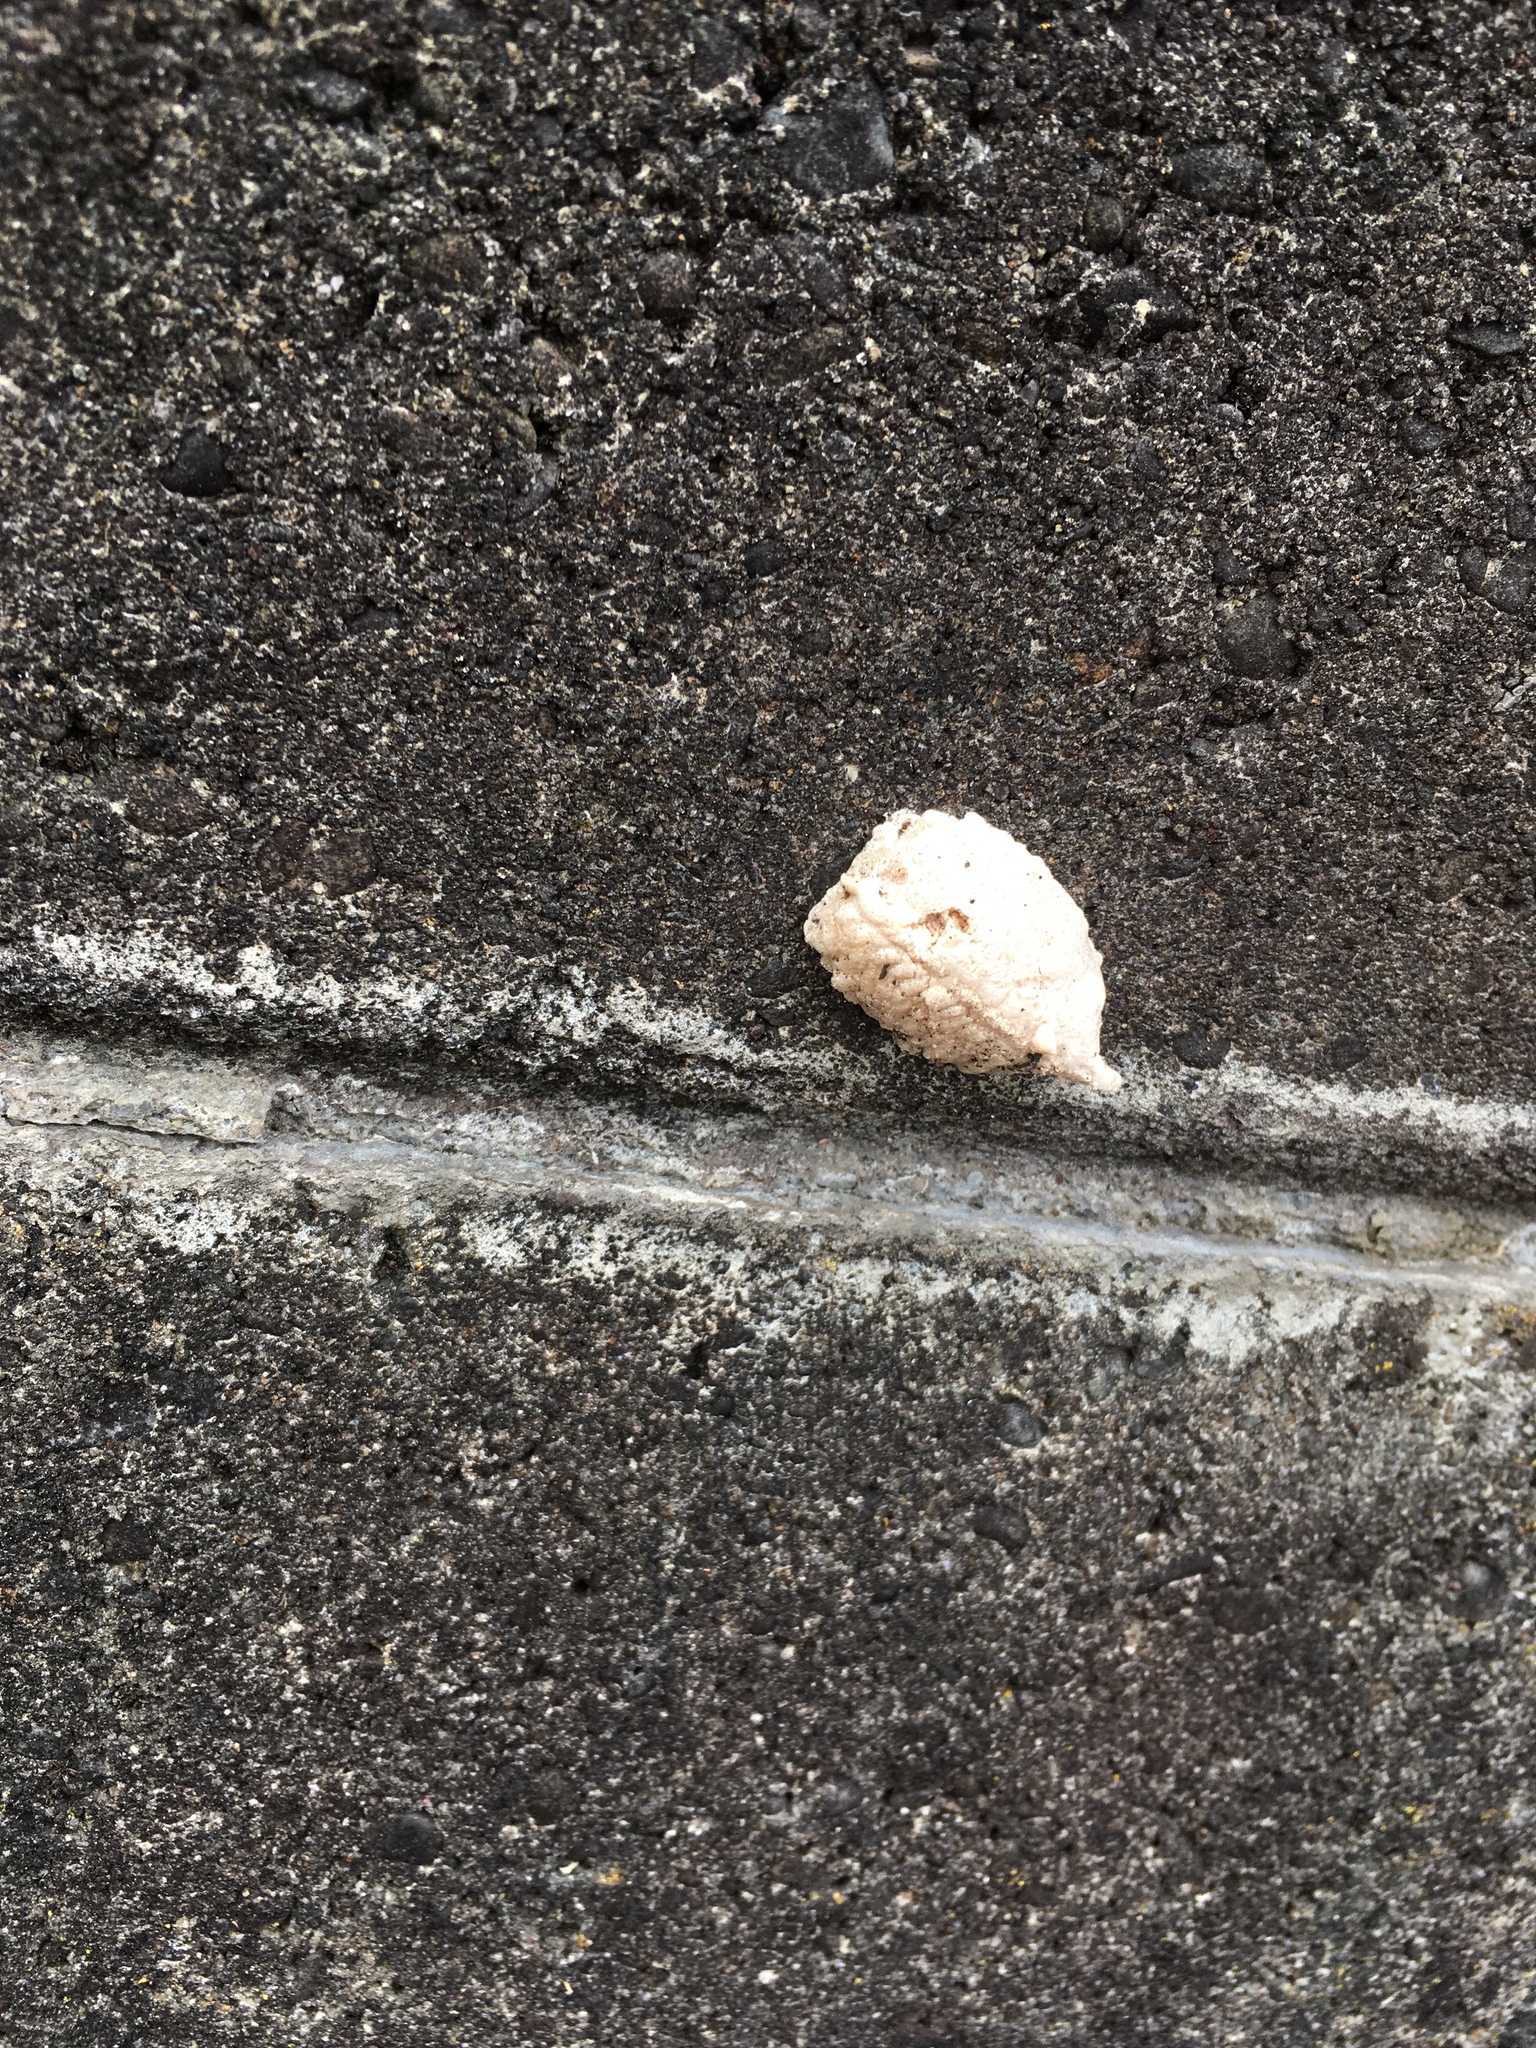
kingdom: Animalia
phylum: Arthropoda
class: Insecta
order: Mantodea
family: Miomantidae
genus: Miomantis
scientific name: Miomantis caffra
